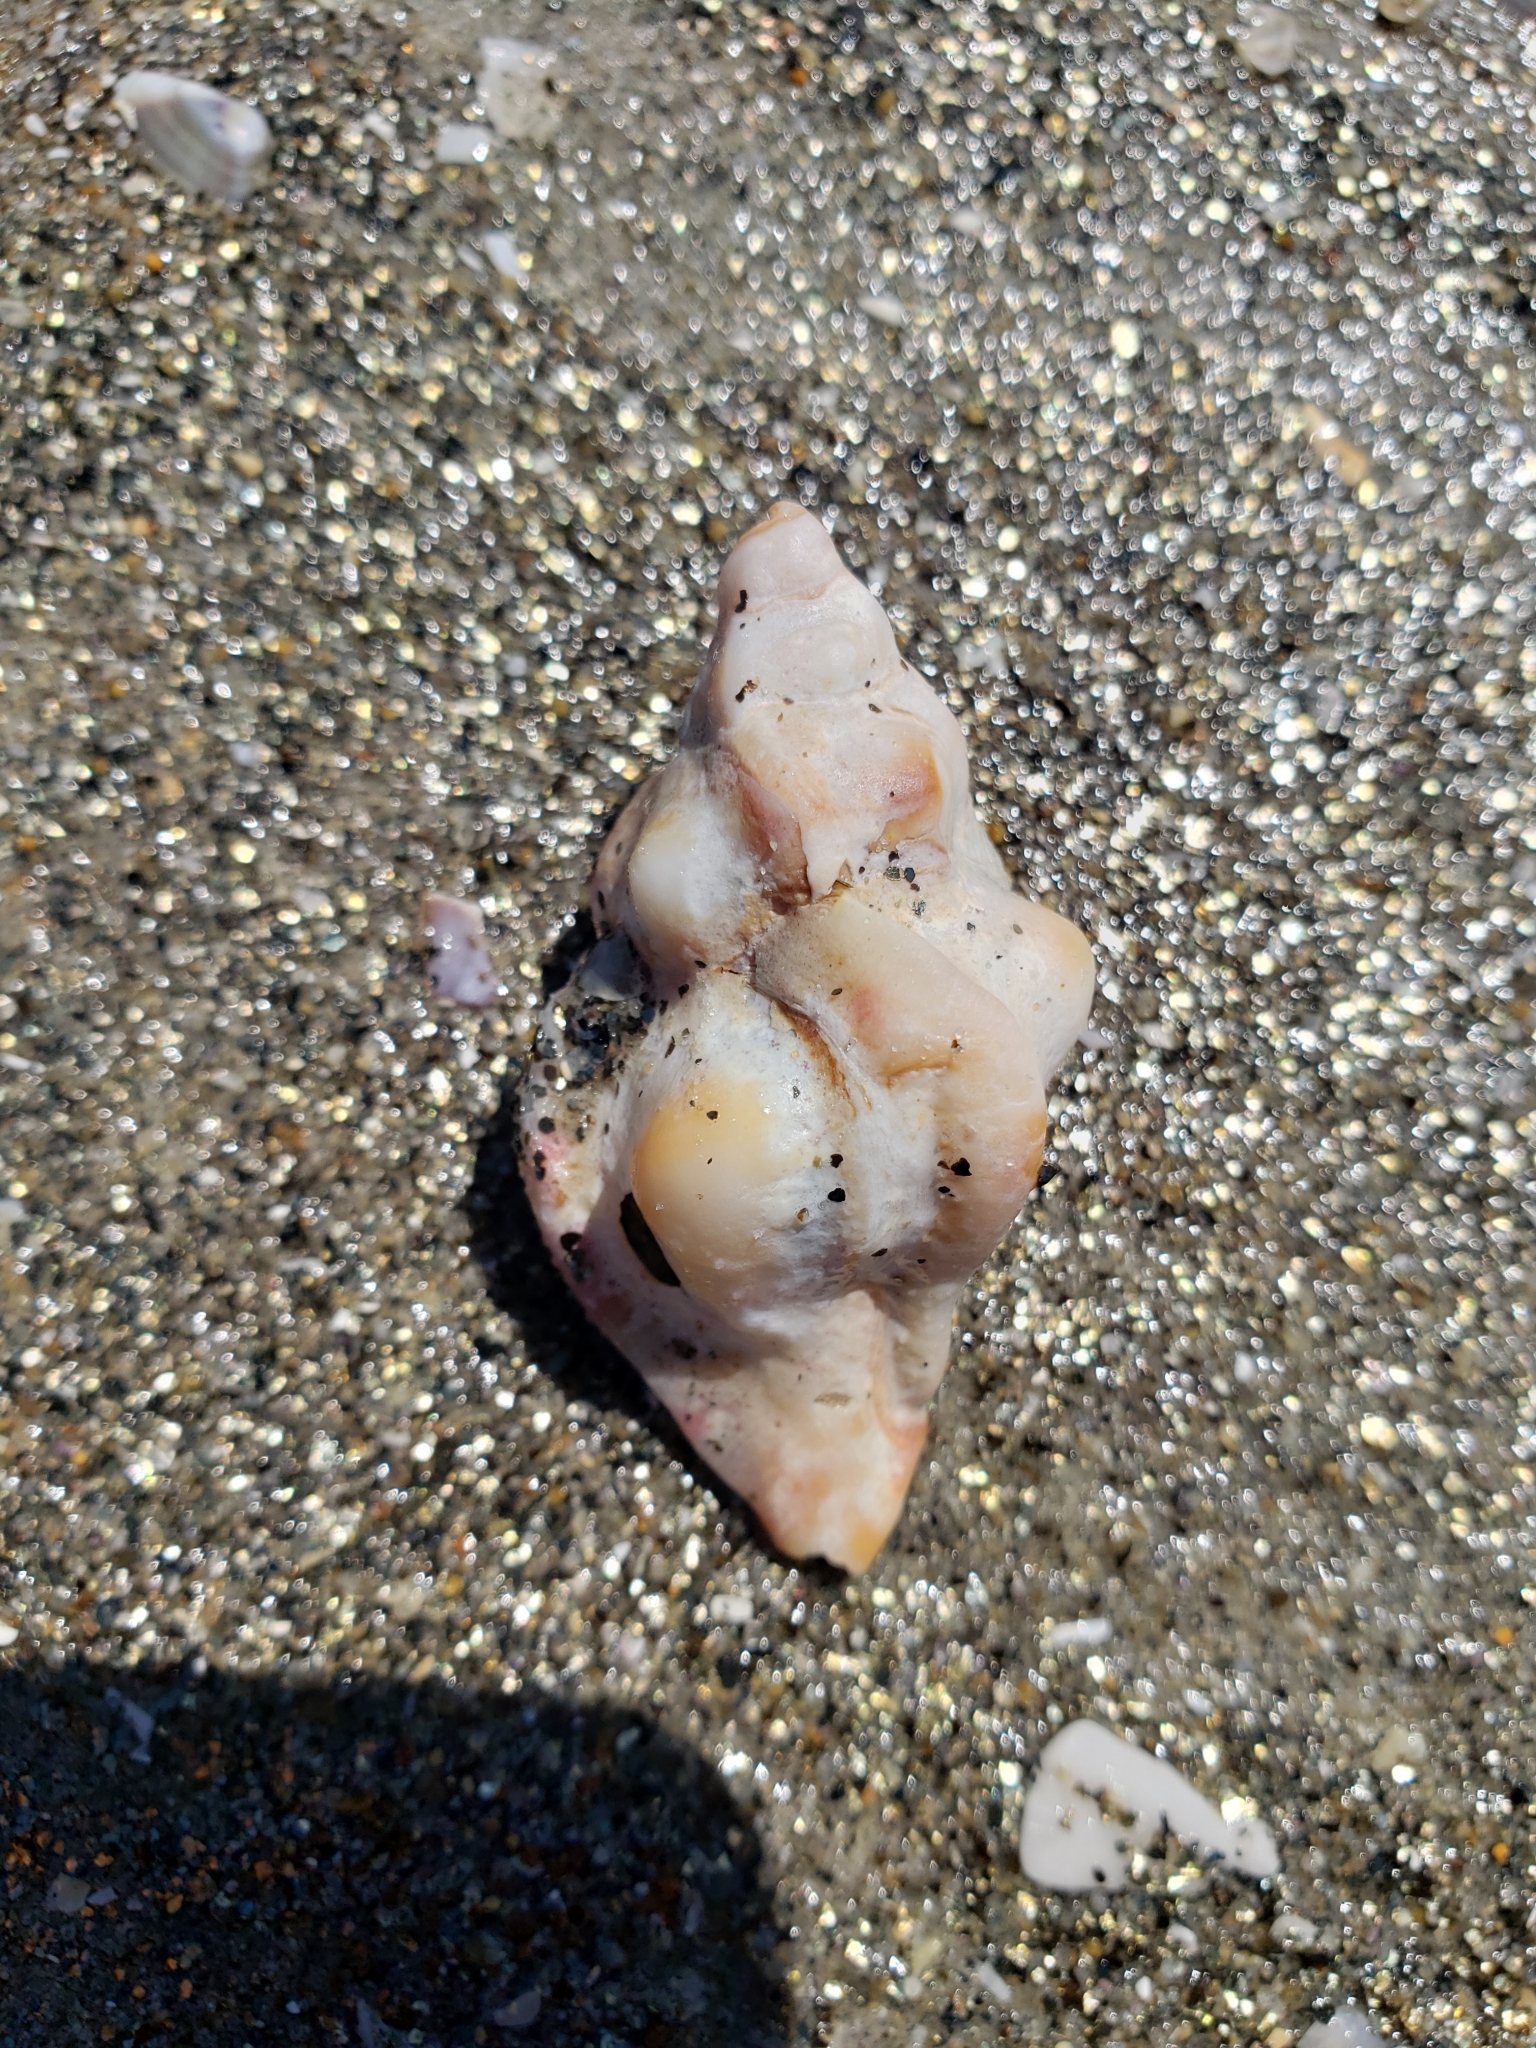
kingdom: Animalia
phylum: Mollusca
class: Gastropoda
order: Neogastropoda
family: Muricidae
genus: Pteropurpura
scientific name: Pteropurpura festiva
